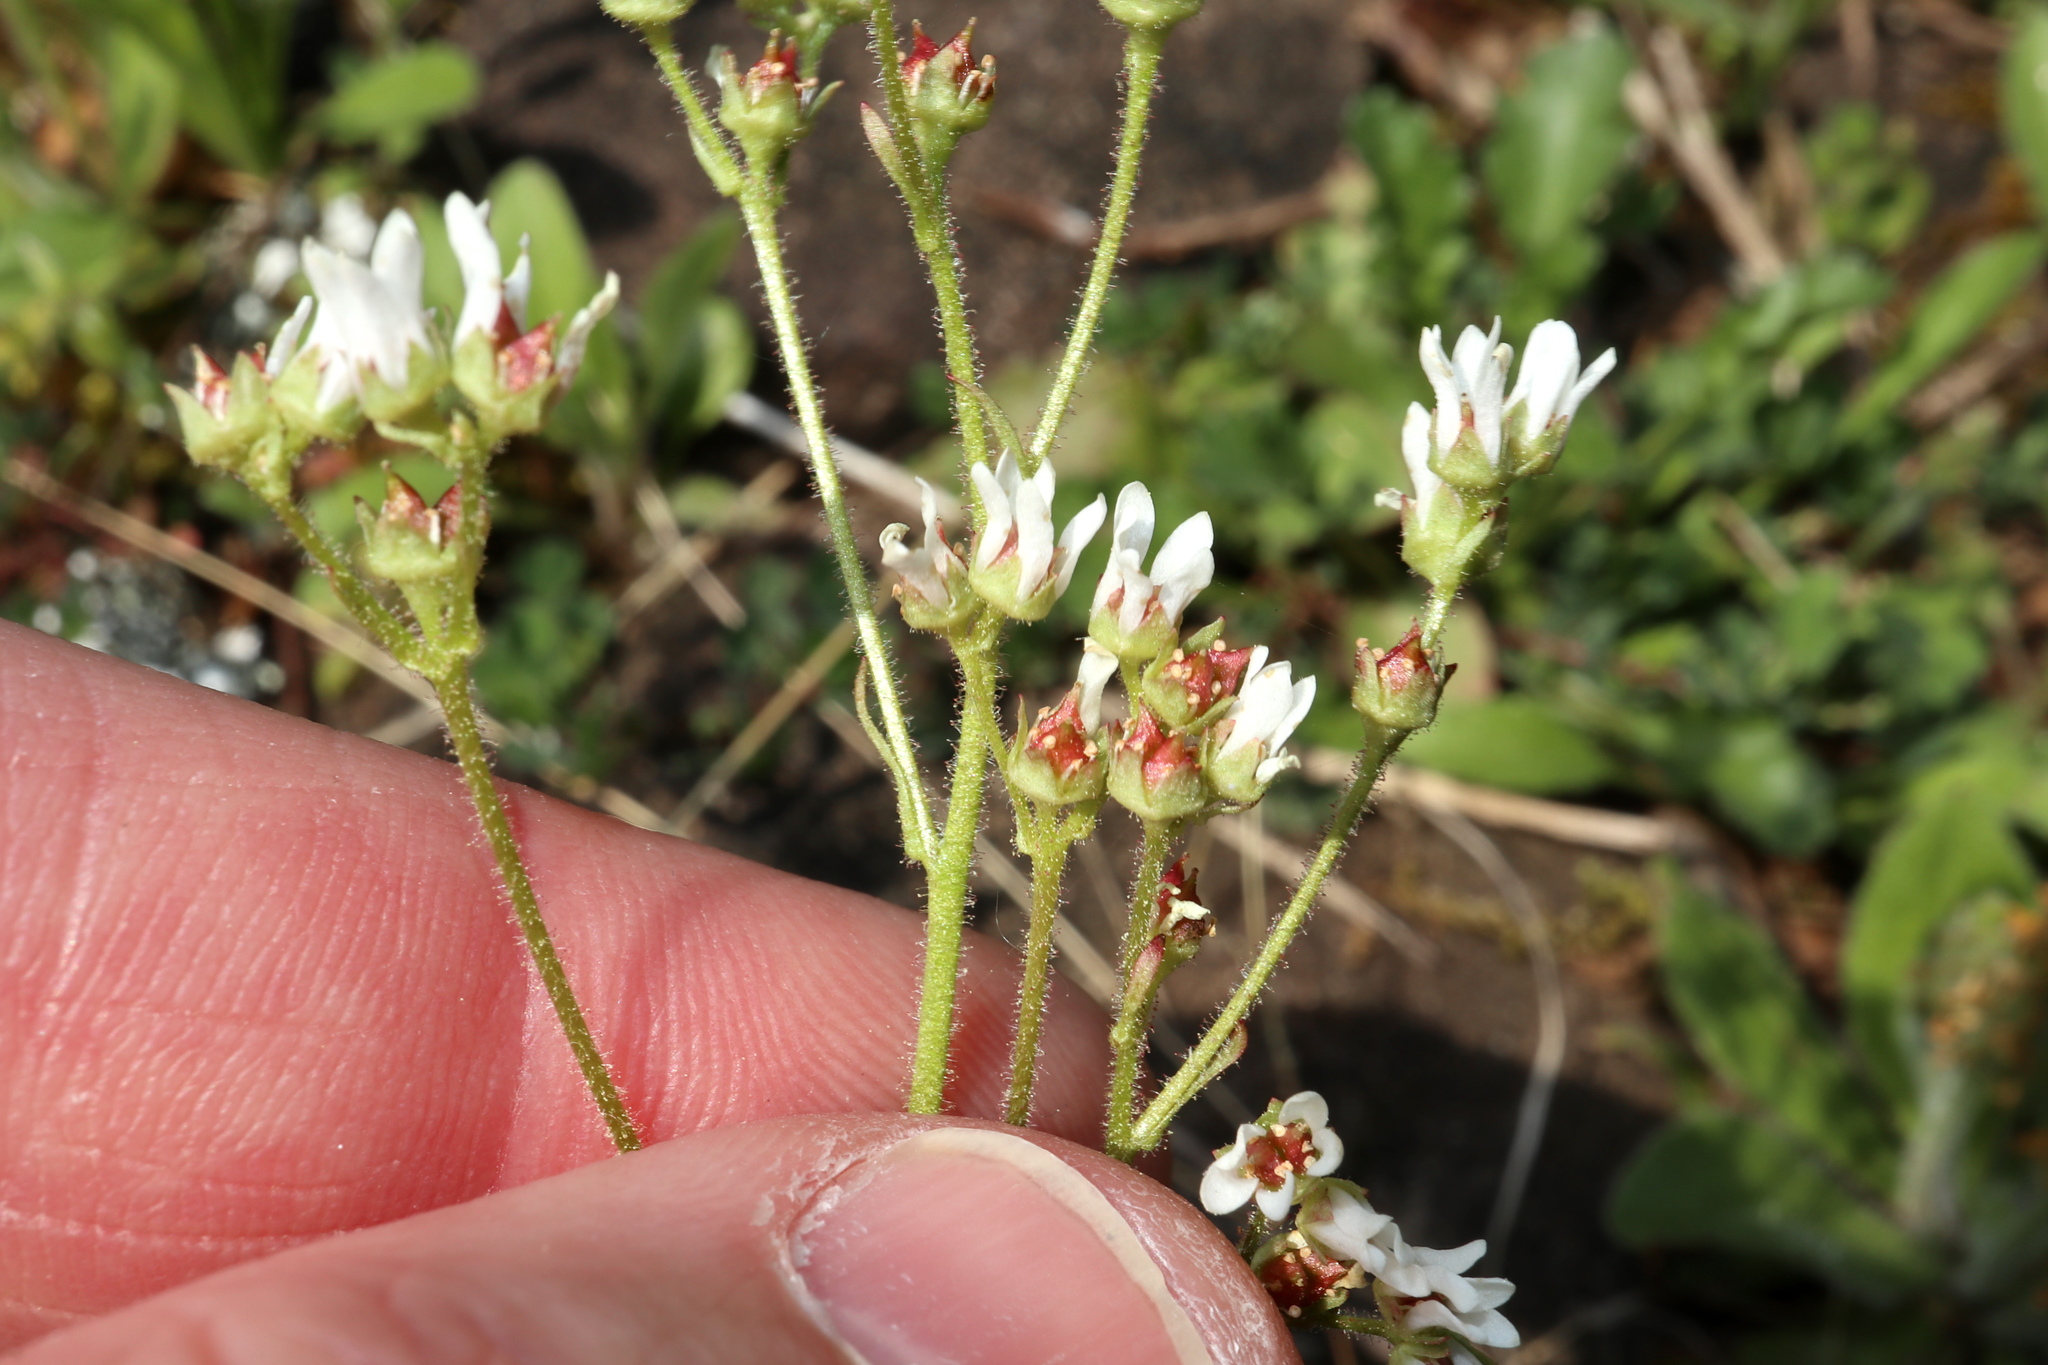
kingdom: Plantae
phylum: Tracheophyta
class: Magnoliopsida
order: Saxifragales
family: Saxifragaceae
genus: Micranthes
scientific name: Micranthes virginiensis
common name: Early saxifrage
